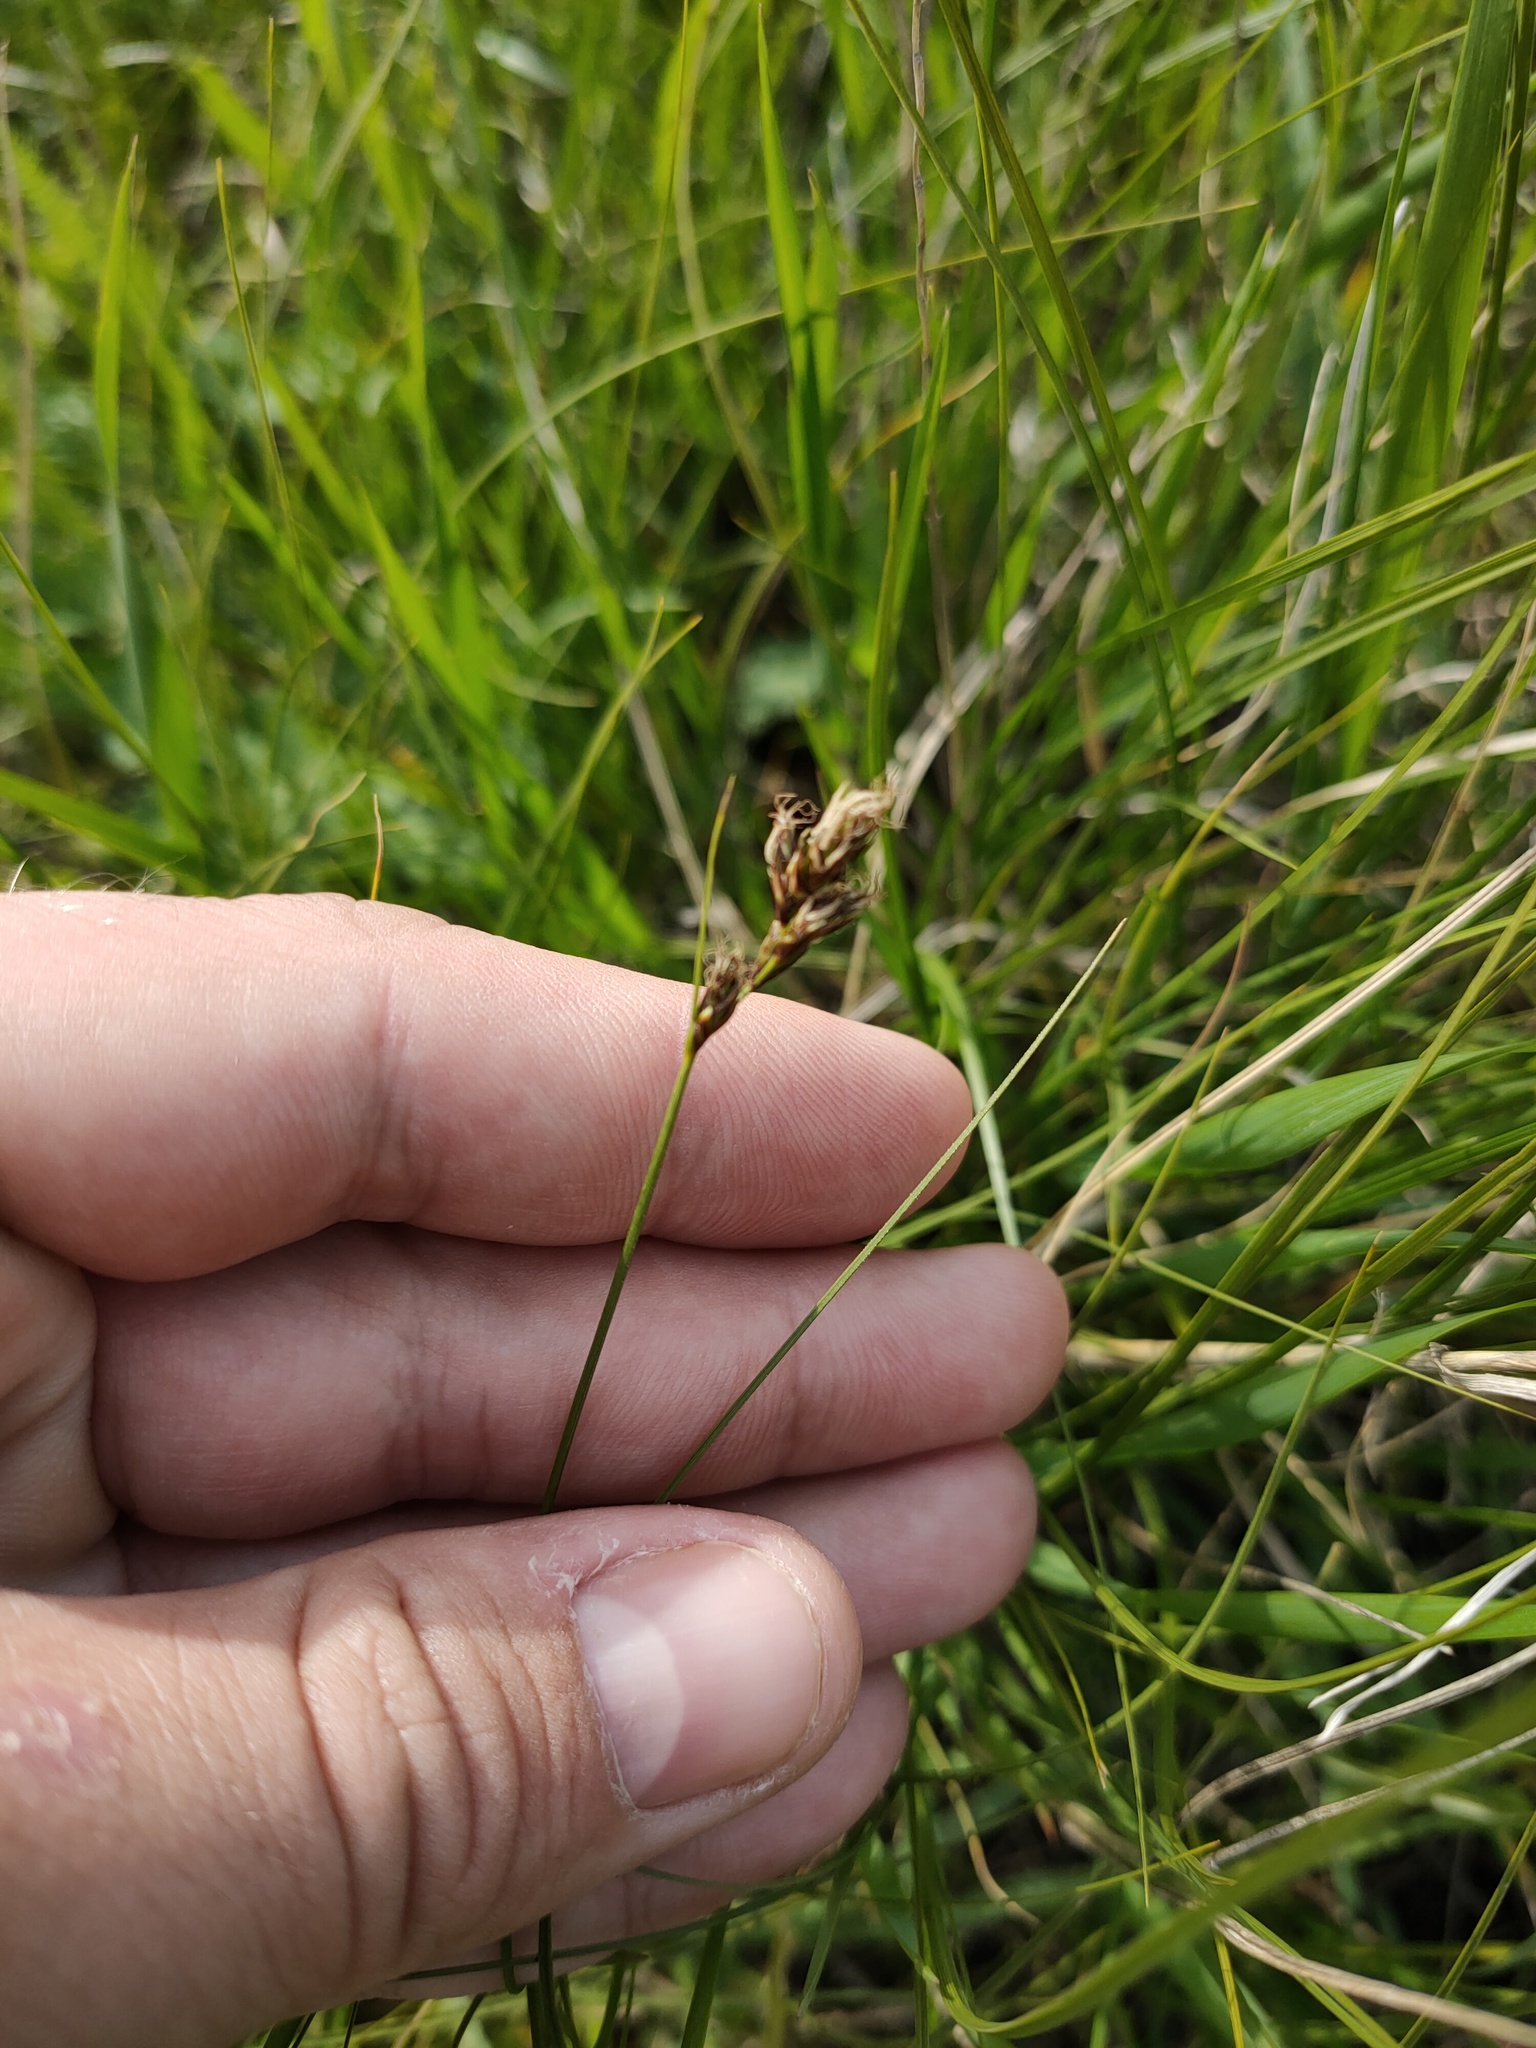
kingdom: Plantae
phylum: Tracheophyta
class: Liliopsida
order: Poales
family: Cyperaceae
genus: Carex
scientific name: Carex praecox
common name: Early sedge
